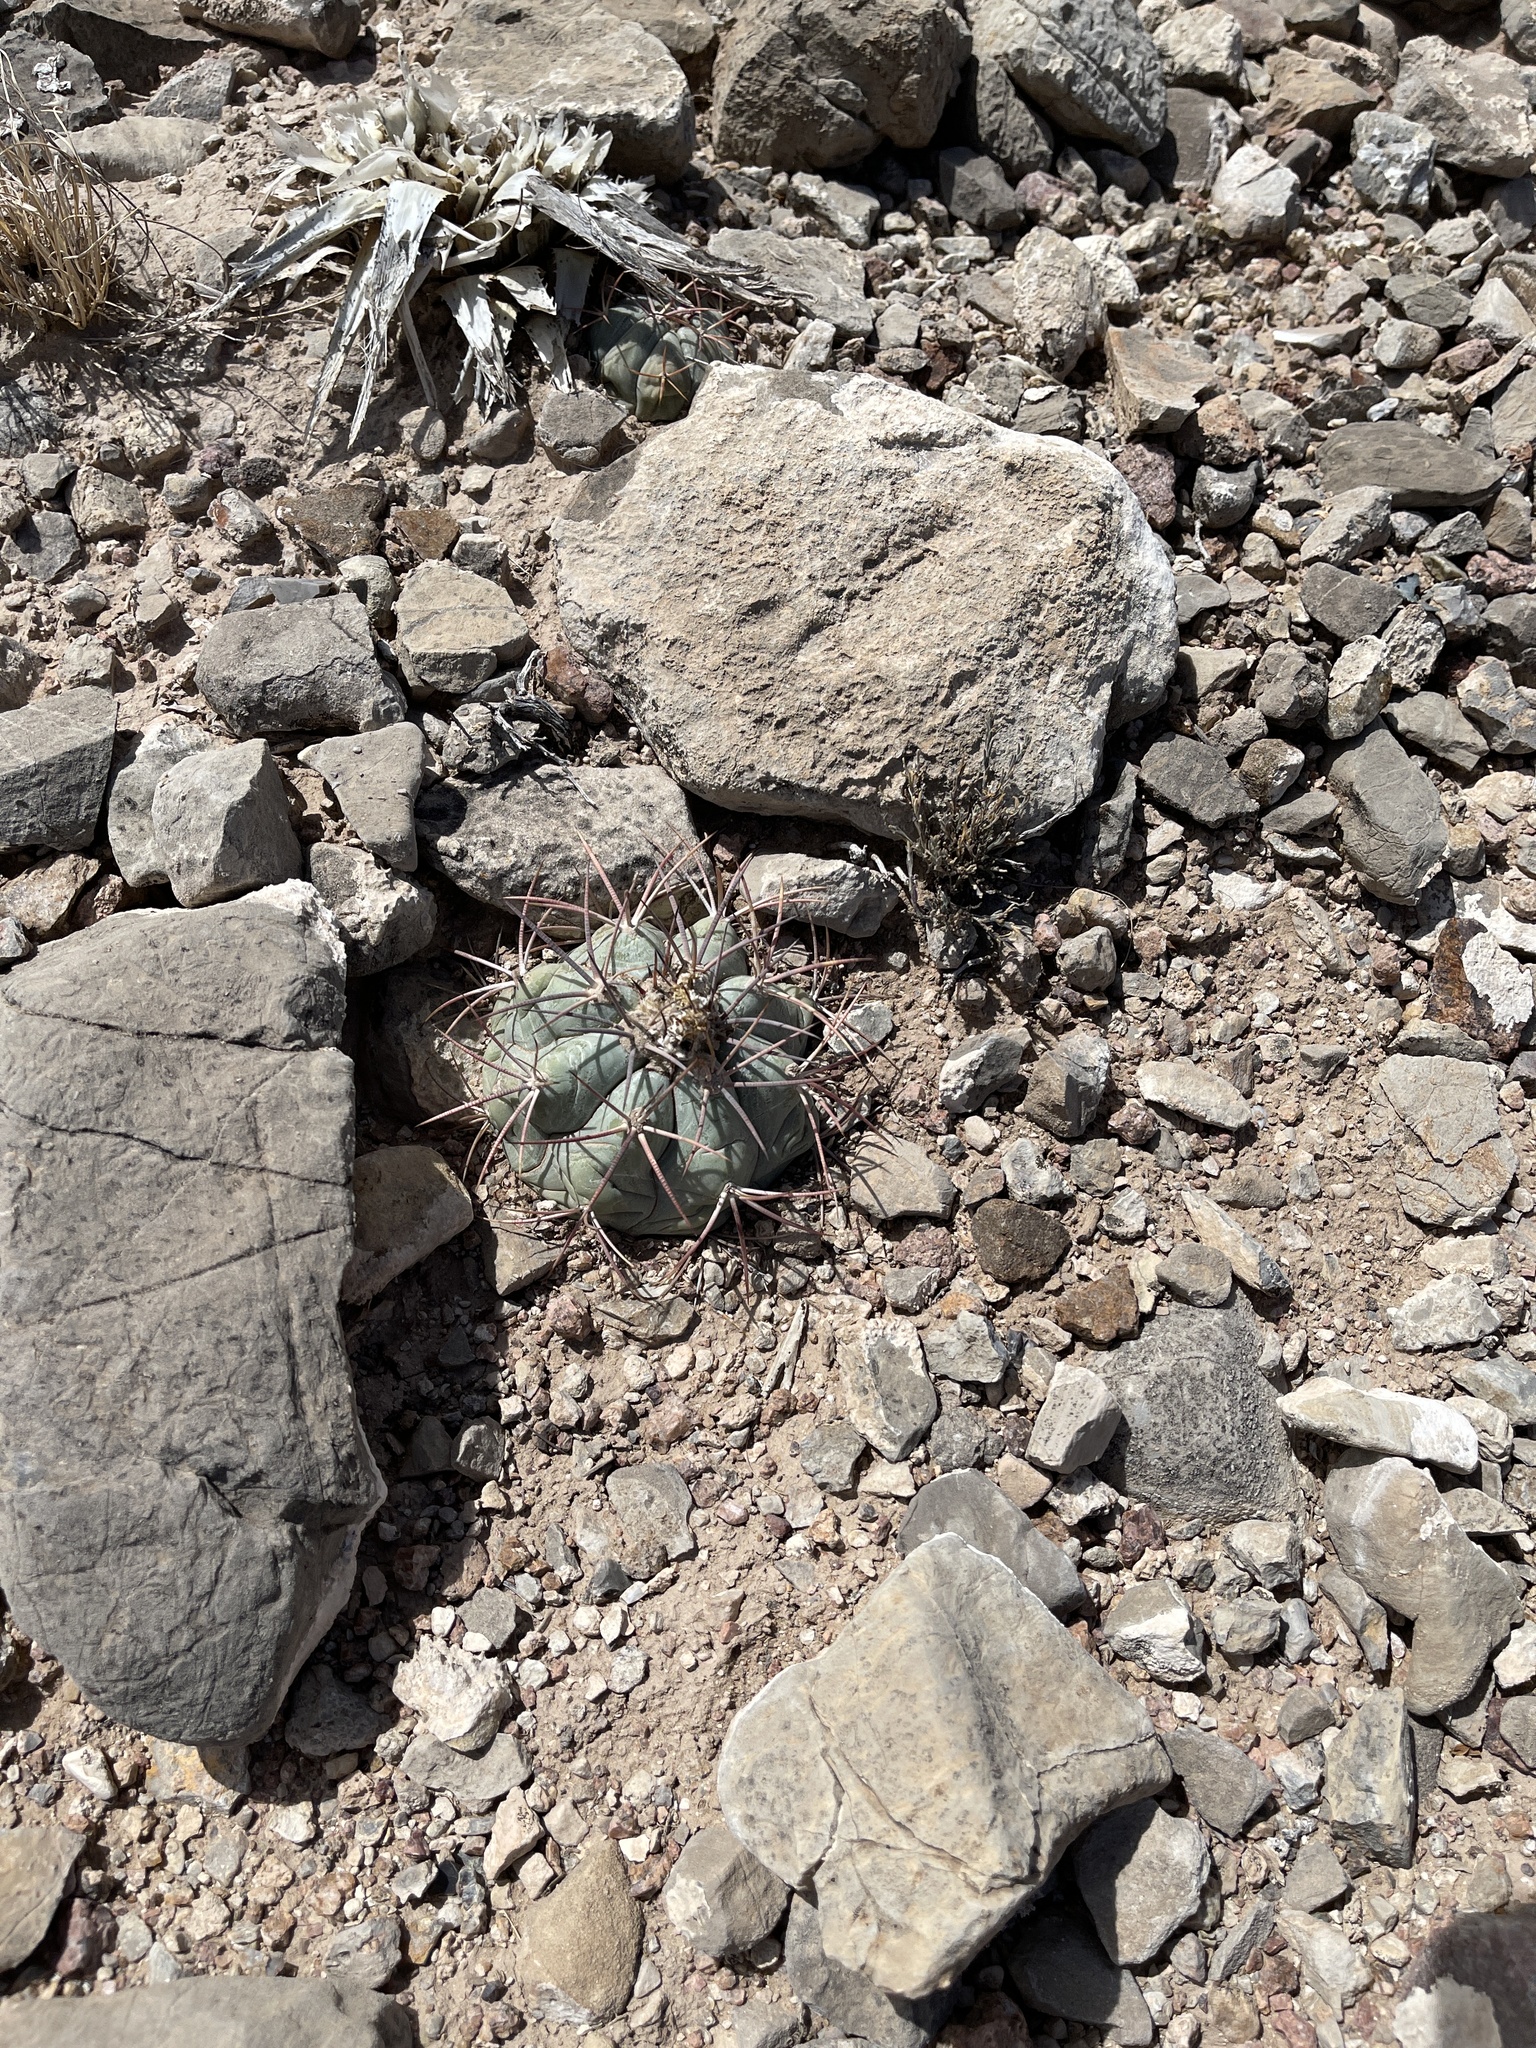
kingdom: Plantae
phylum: Tracheophyta
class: Magnoliopsida
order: Caryophyllales
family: Cactaceae
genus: Echinocactus
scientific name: Echinocactus horizonthalonius
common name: Devilshead
